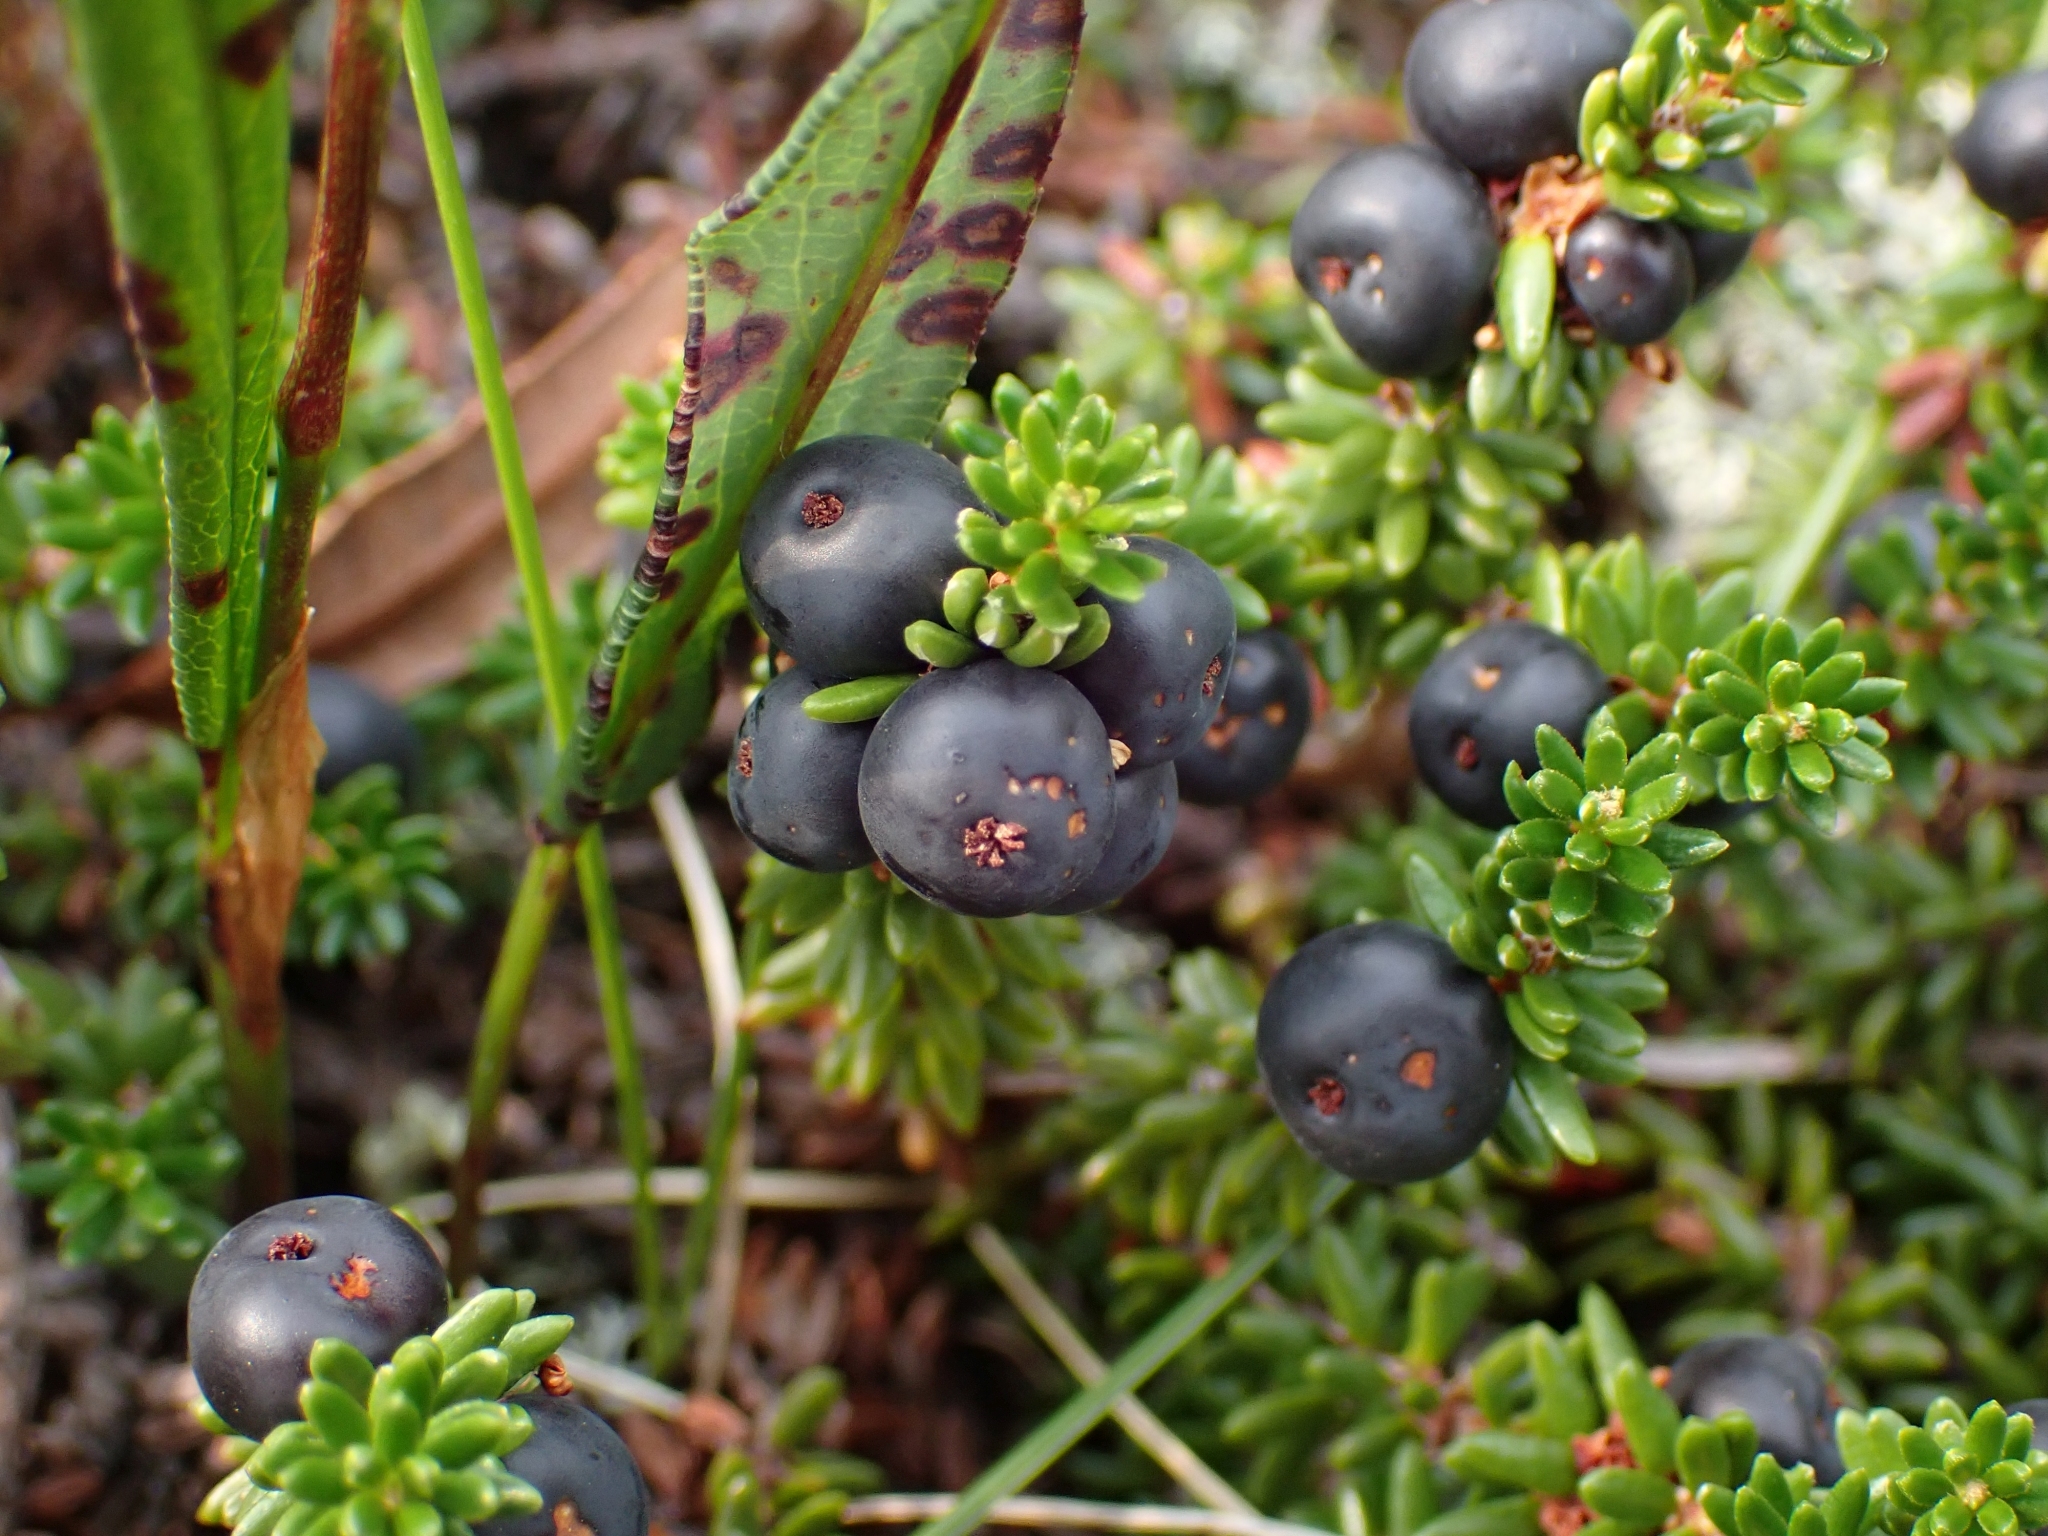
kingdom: Plantae
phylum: Tracheophyta
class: Magnoliopsida
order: Ericales
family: Ericaceae
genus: Empetrum
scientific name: Empetrum nigrum
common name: Black crowberry
